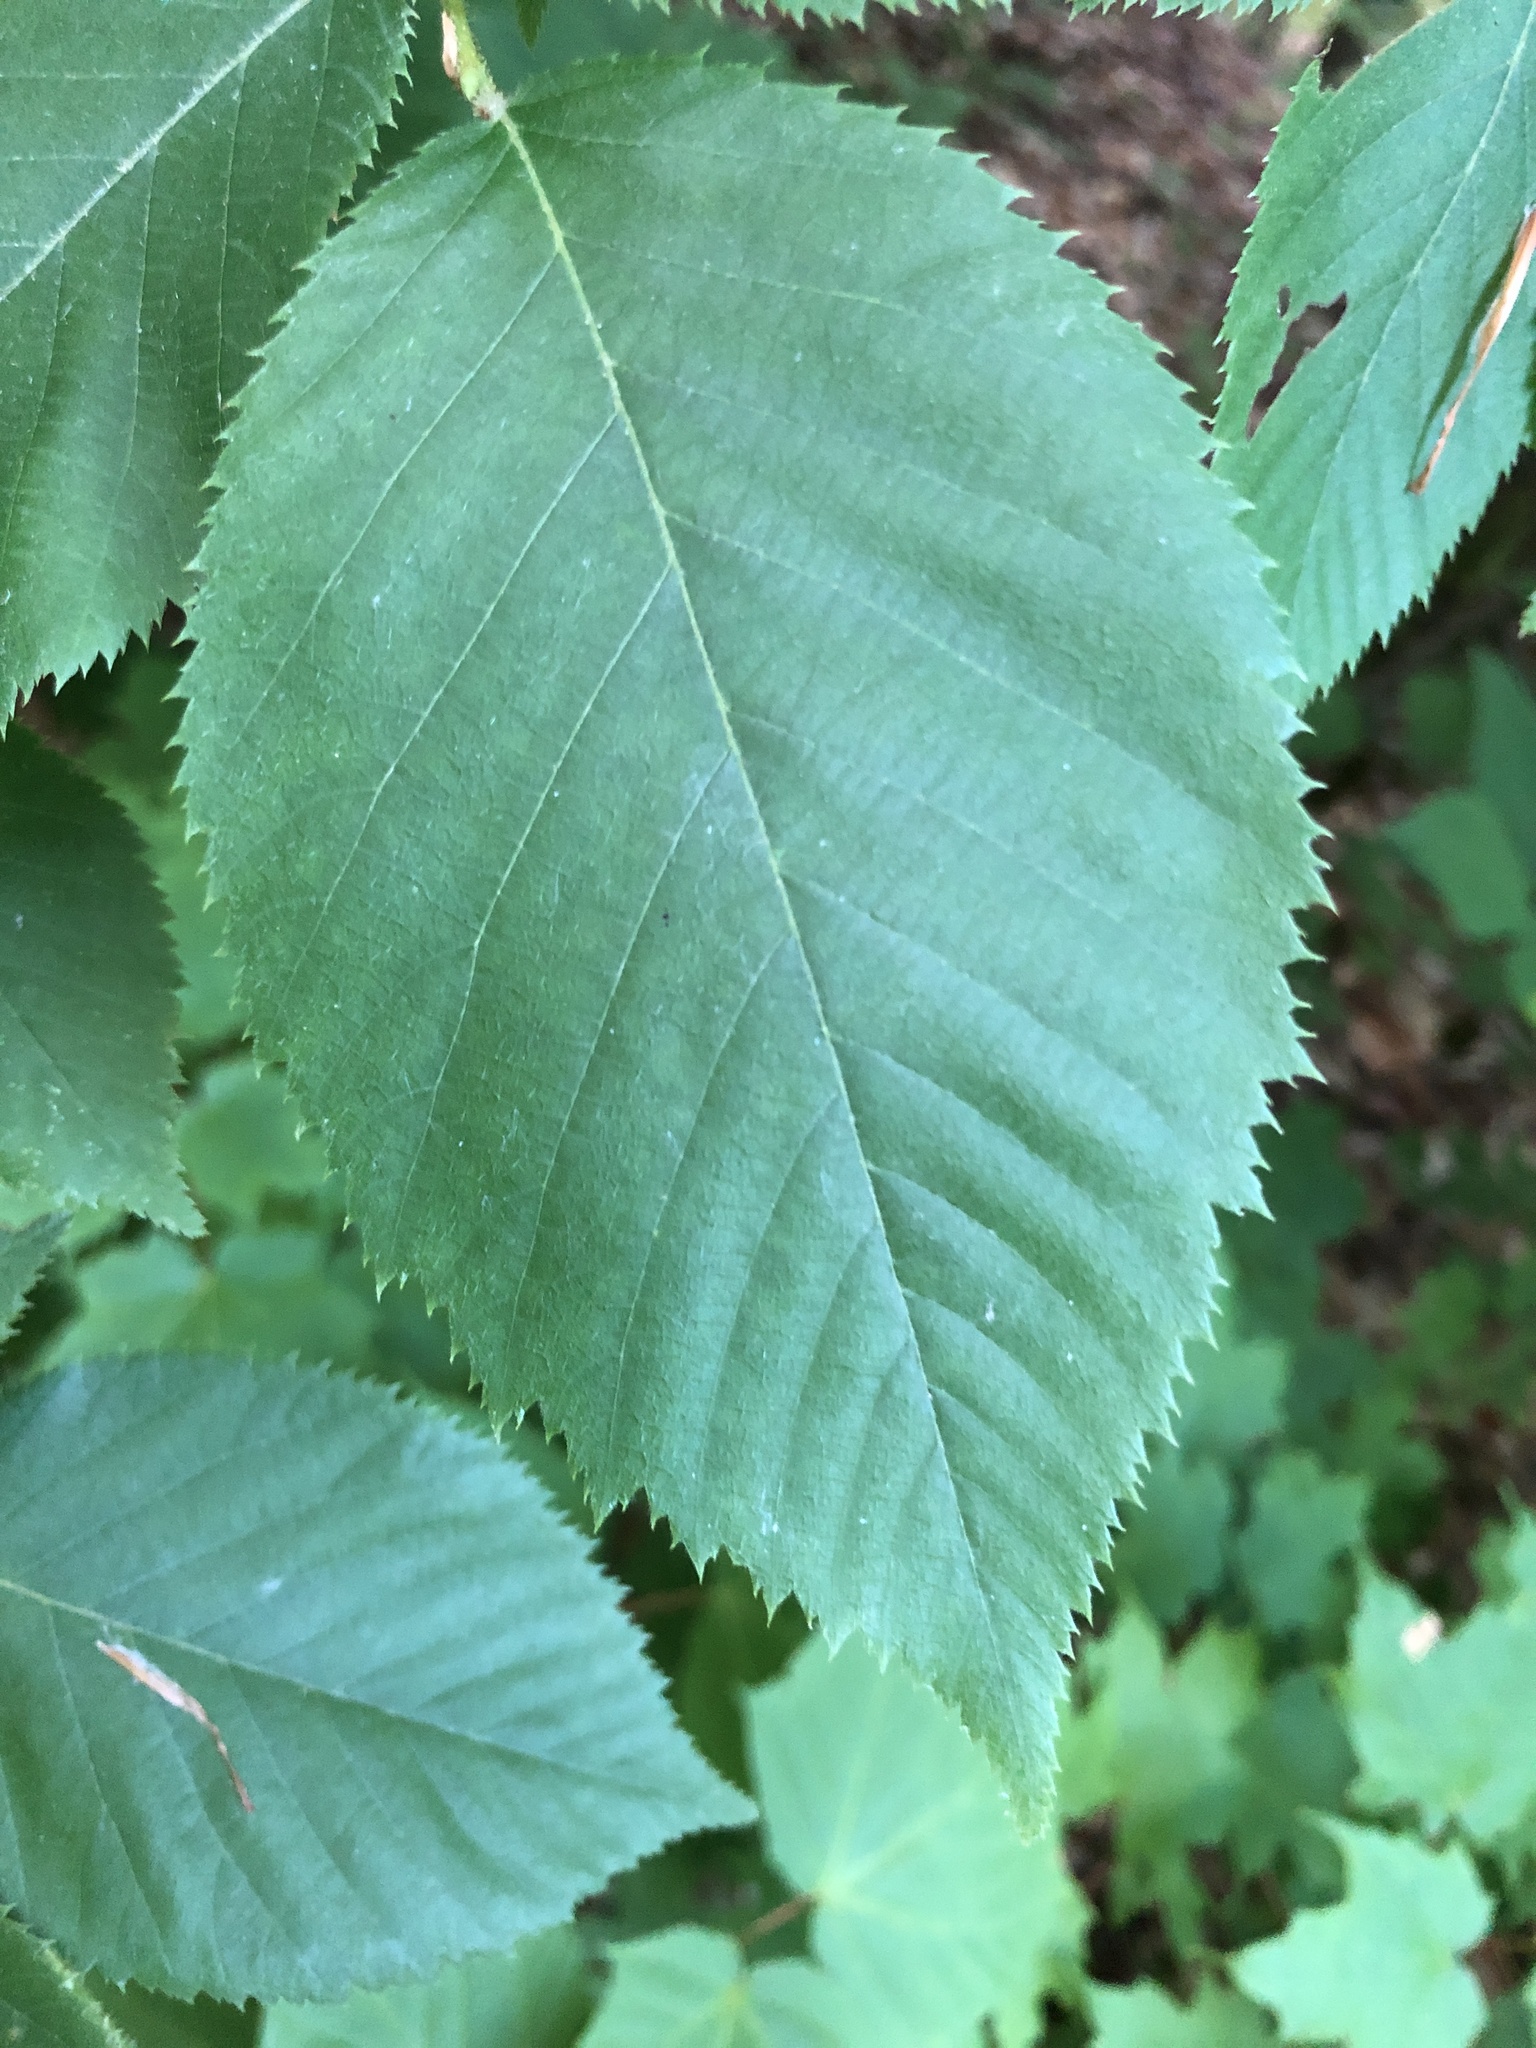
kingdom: Plantae
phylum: Tracheophyta
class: Magnoliopsida
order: Fagales
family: Betulaceae
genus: Betula
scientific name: Betula alleghaniensis
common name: Yellow birch
